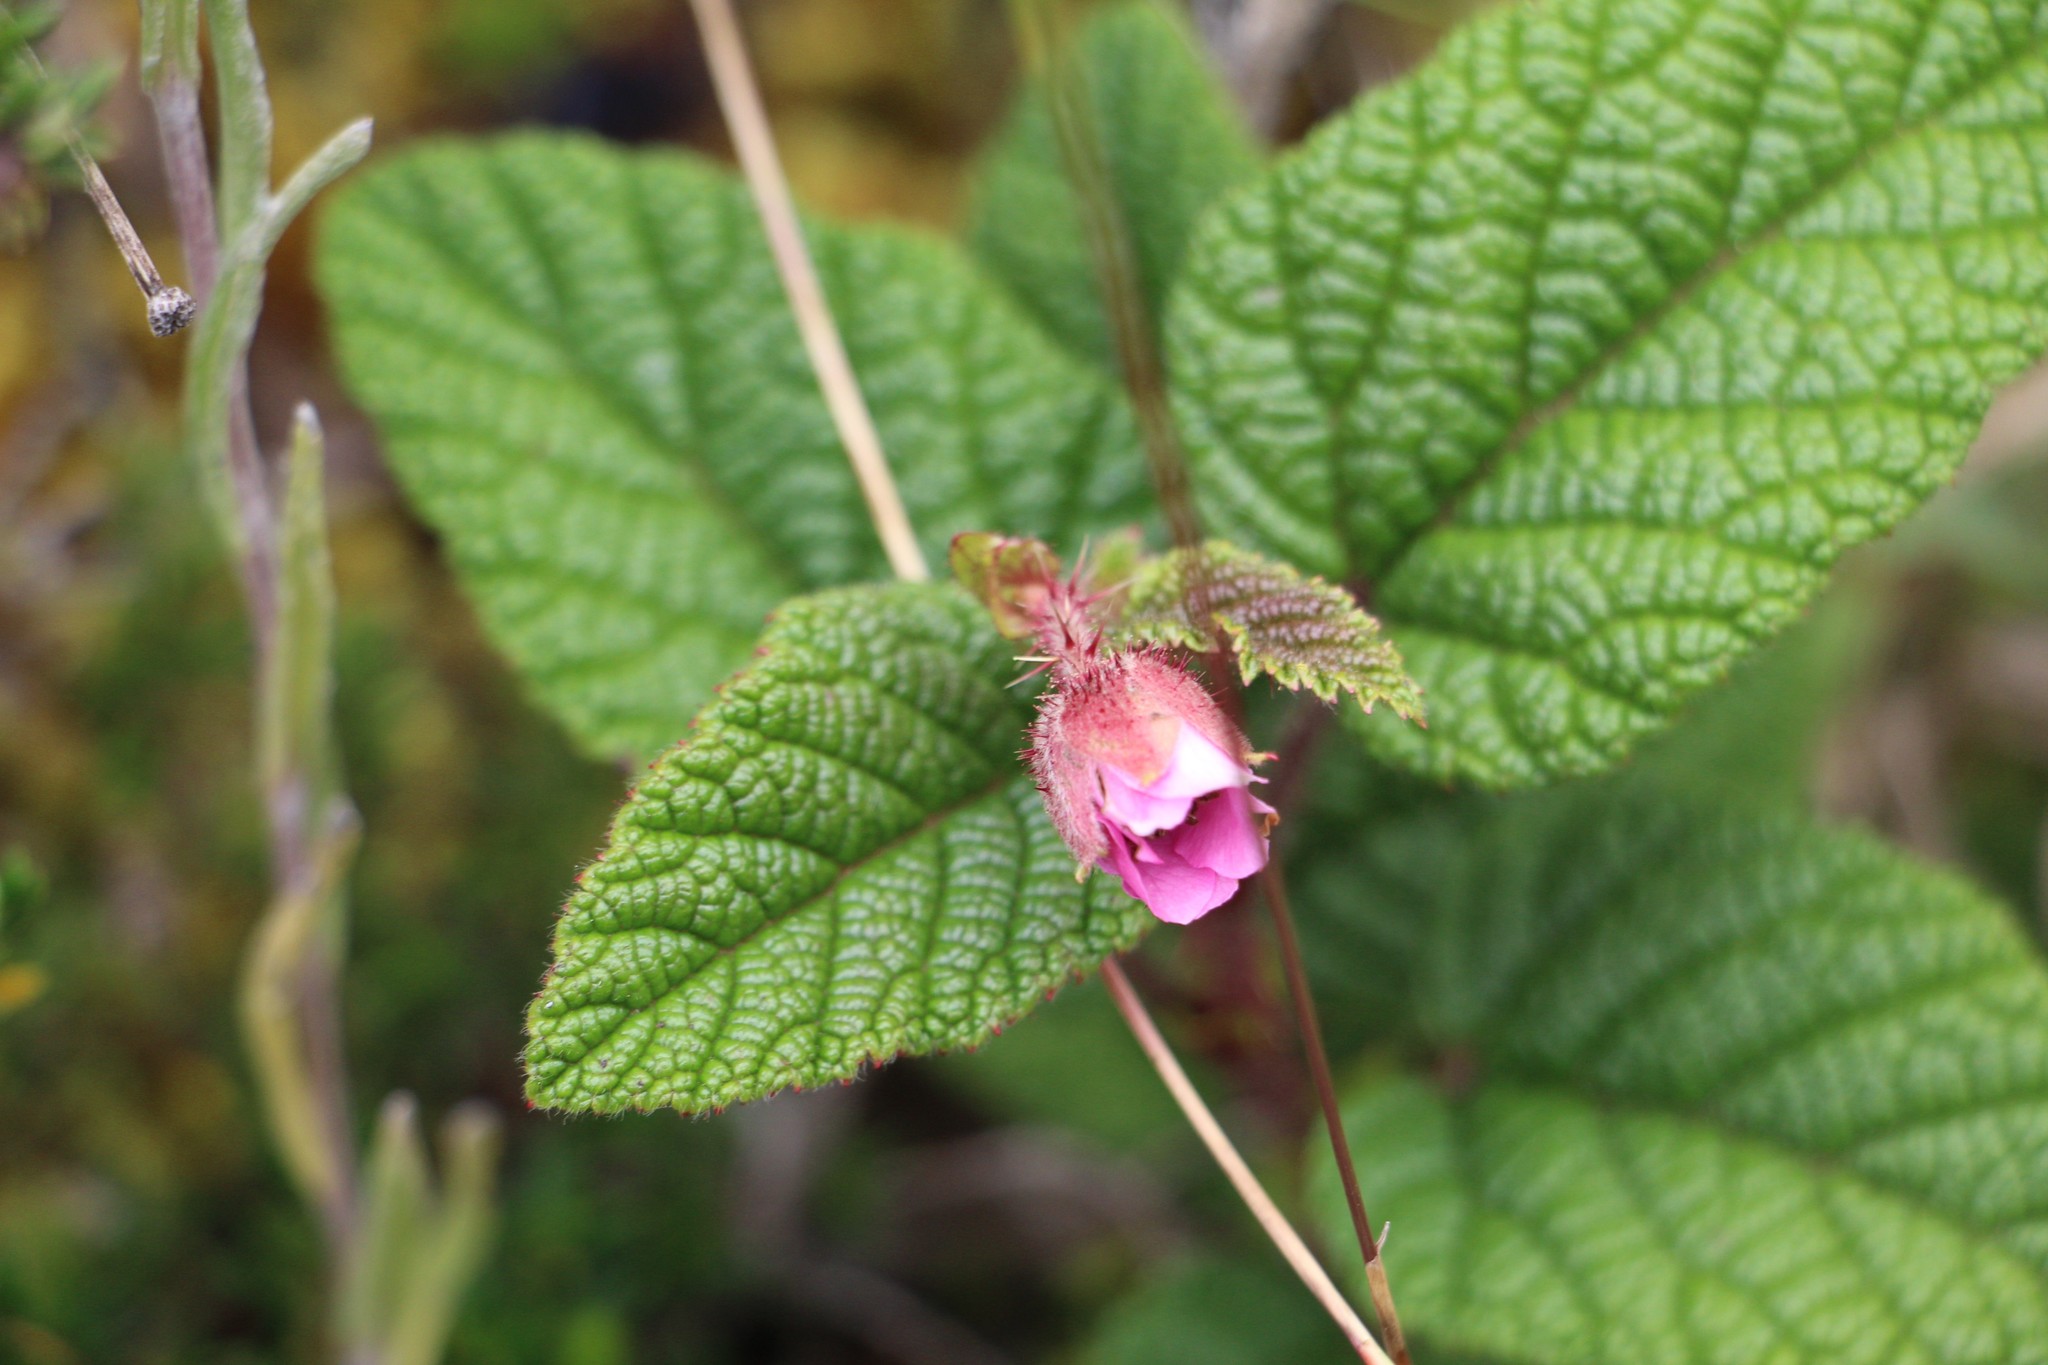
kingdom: Plantae
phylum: Tracheophyta
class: Magnoliopsida
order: Rosales
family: Rosaceae
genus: Rubus
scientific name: Rubus acanthophyllos
